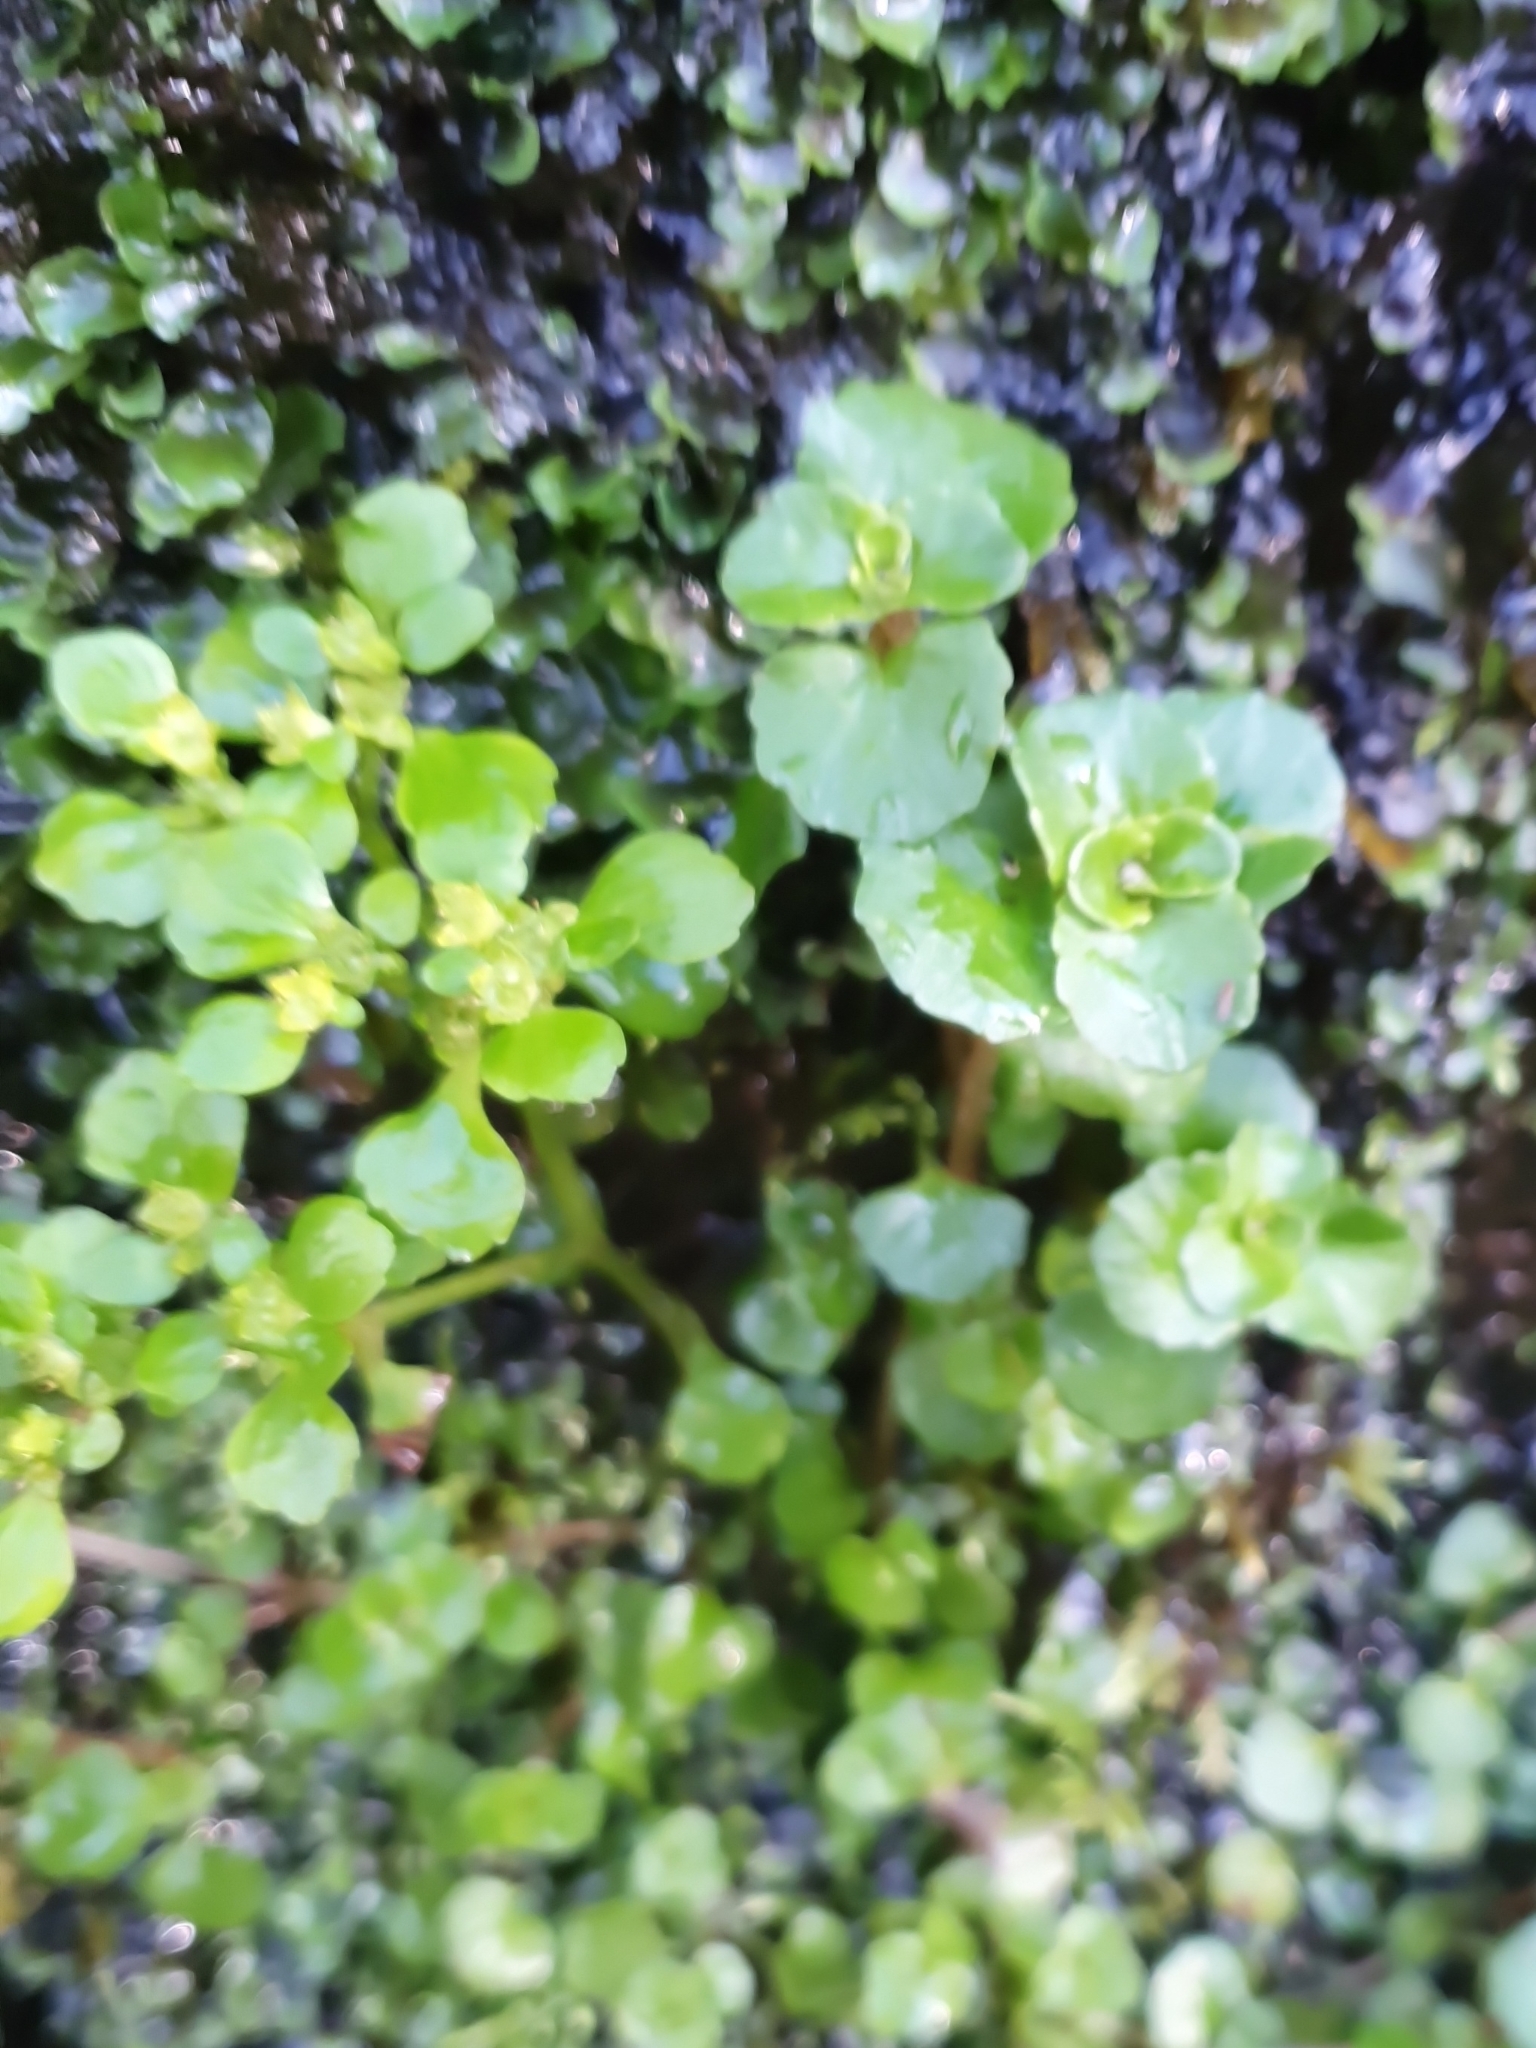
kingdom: Plantae
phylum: Tracheophyta
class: Magnoliopsida
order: Saxifragales
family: Saxifragaceae
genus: Chrysosplenium
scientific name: Chrysosplenium oppositifolium
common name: Opposite-leaved golden-saxifrage
